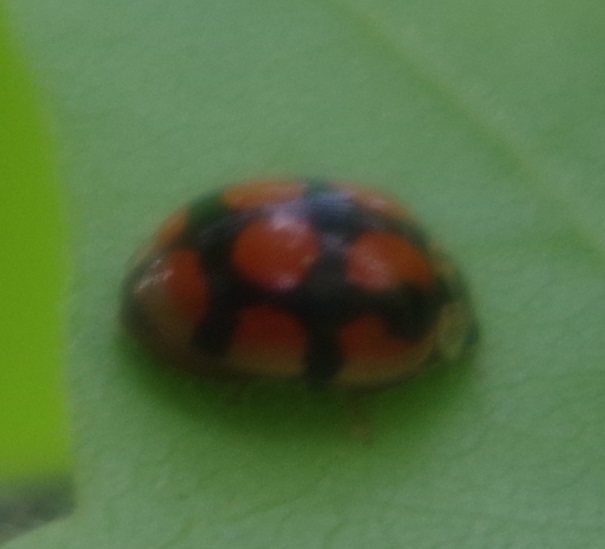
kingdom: Animalia
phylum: Arthropoda
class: Insecta
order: Coleoptera
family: Coccinellidae
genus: Adalia
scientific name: Adalia decempunctata
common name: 10-spot ladybird
